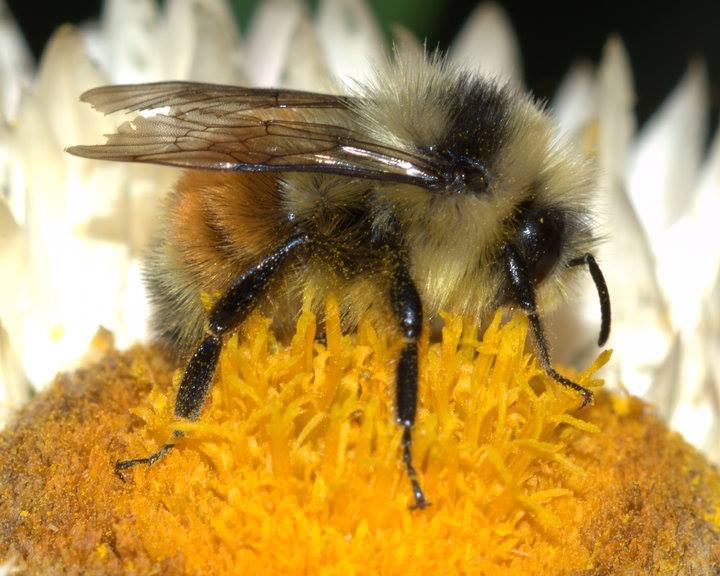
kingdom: Animalia
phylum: Arthropoda
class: Insecta
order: Hymenoptera
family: Apidae
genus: Bombus
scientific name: Bombus sylvicola
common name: Forest bumble bee
